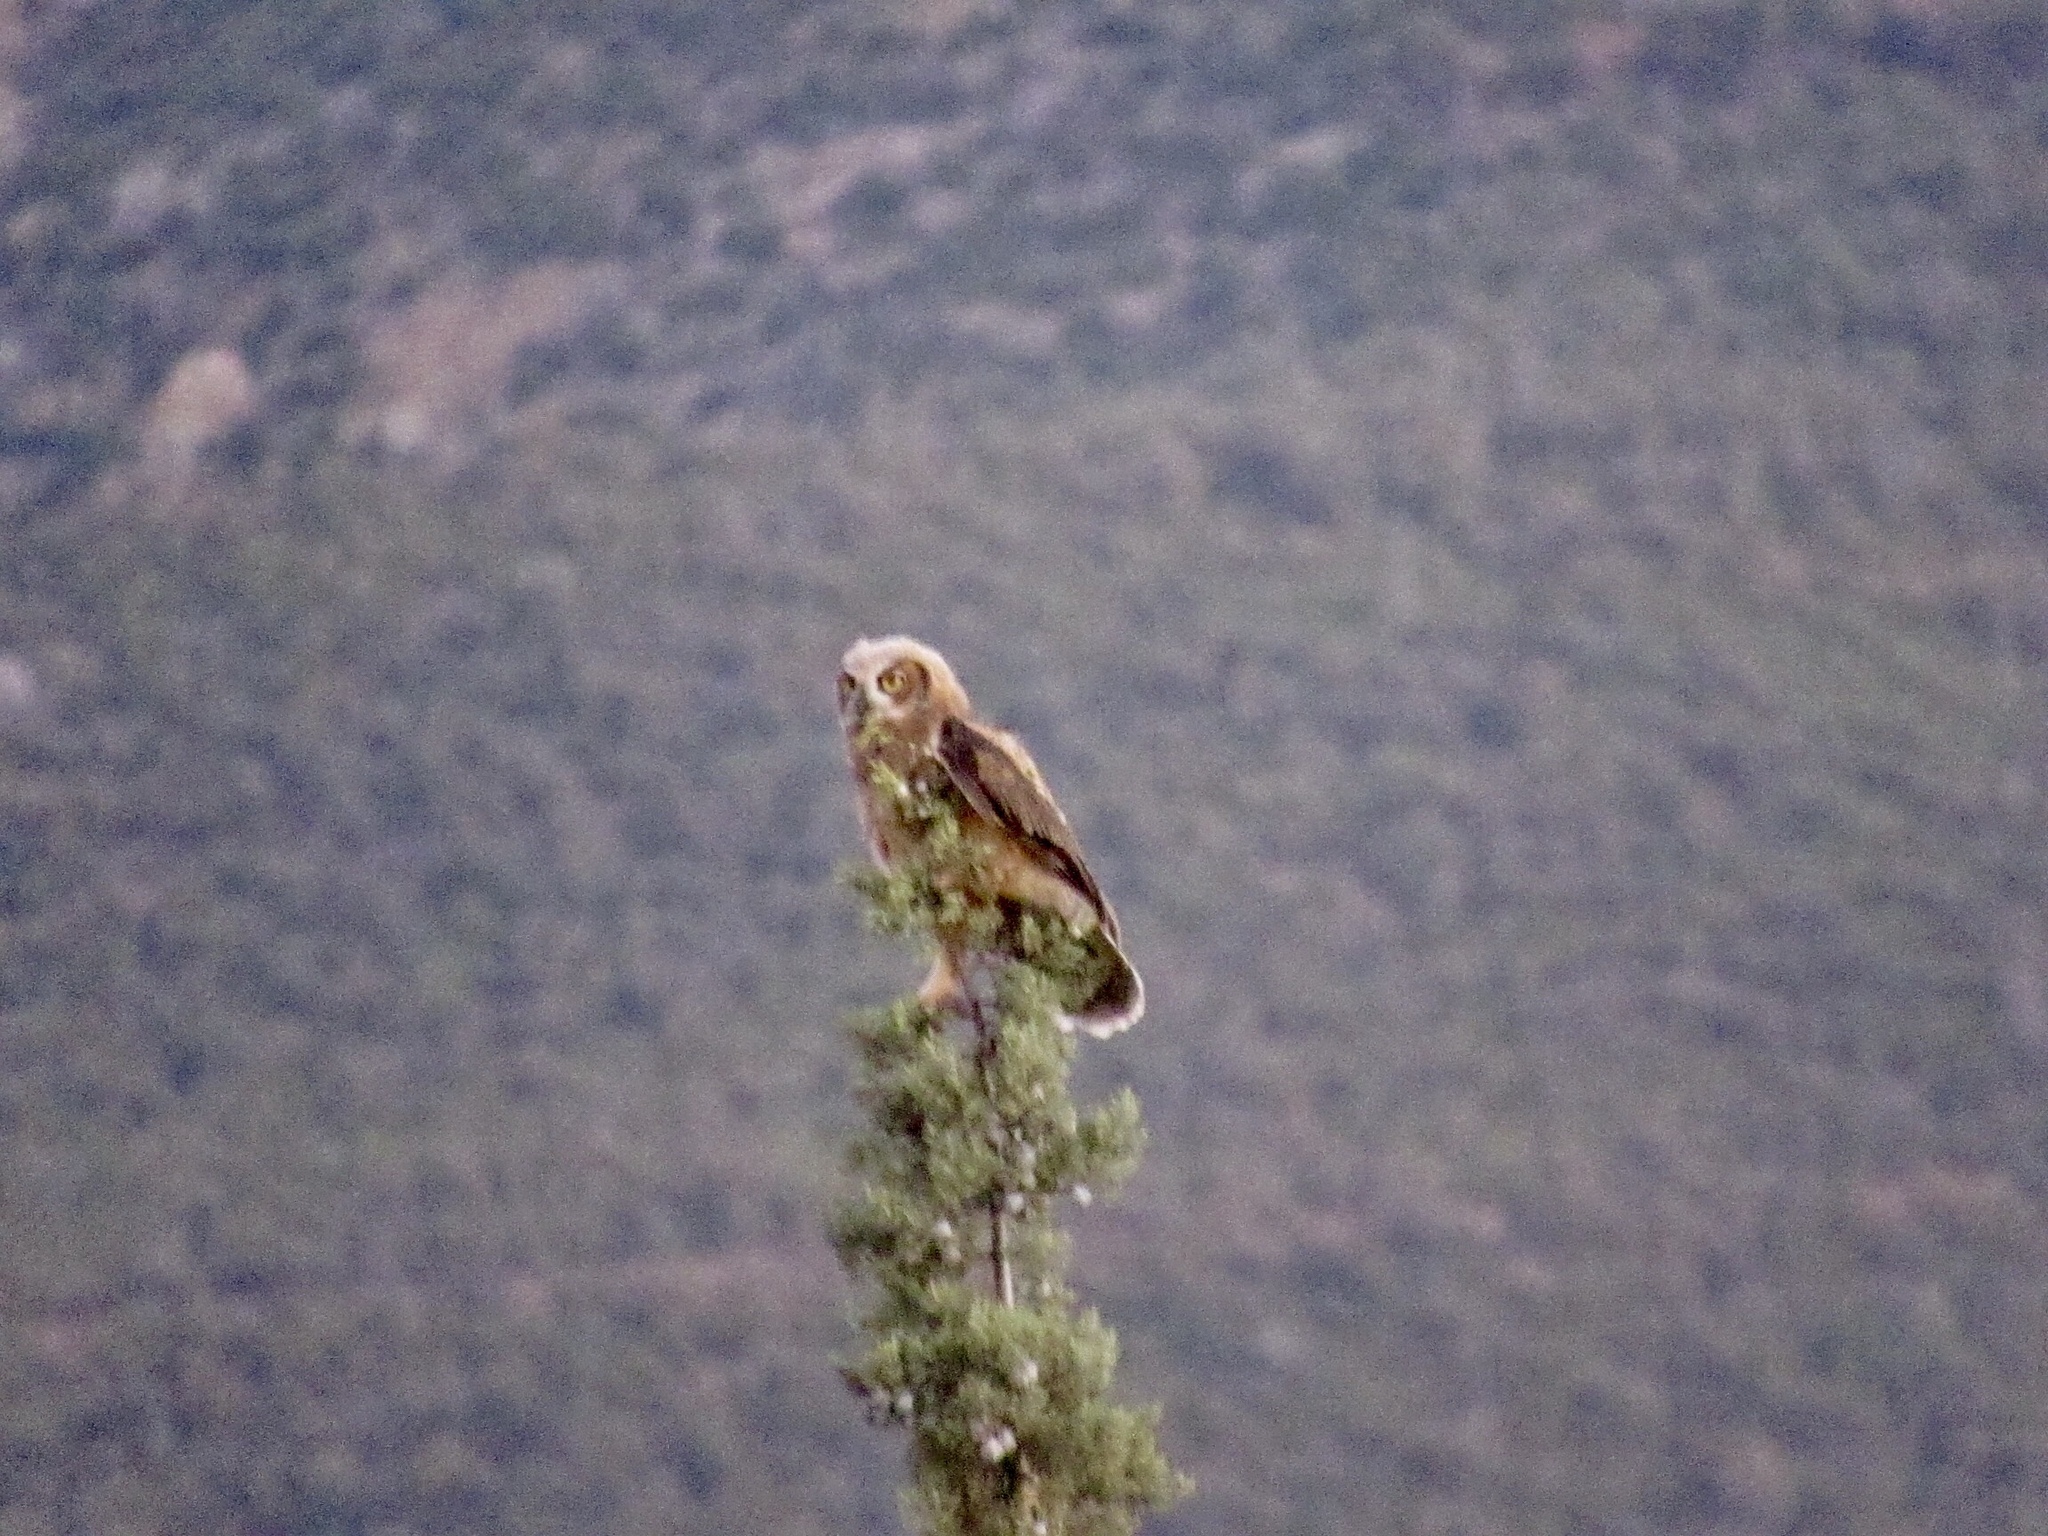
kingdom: Animalia
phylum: Chordata
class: Aves
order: Strigiformes
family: Strigidae
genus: Bubo
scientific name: Bubo virginianus
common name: Great horned owl
